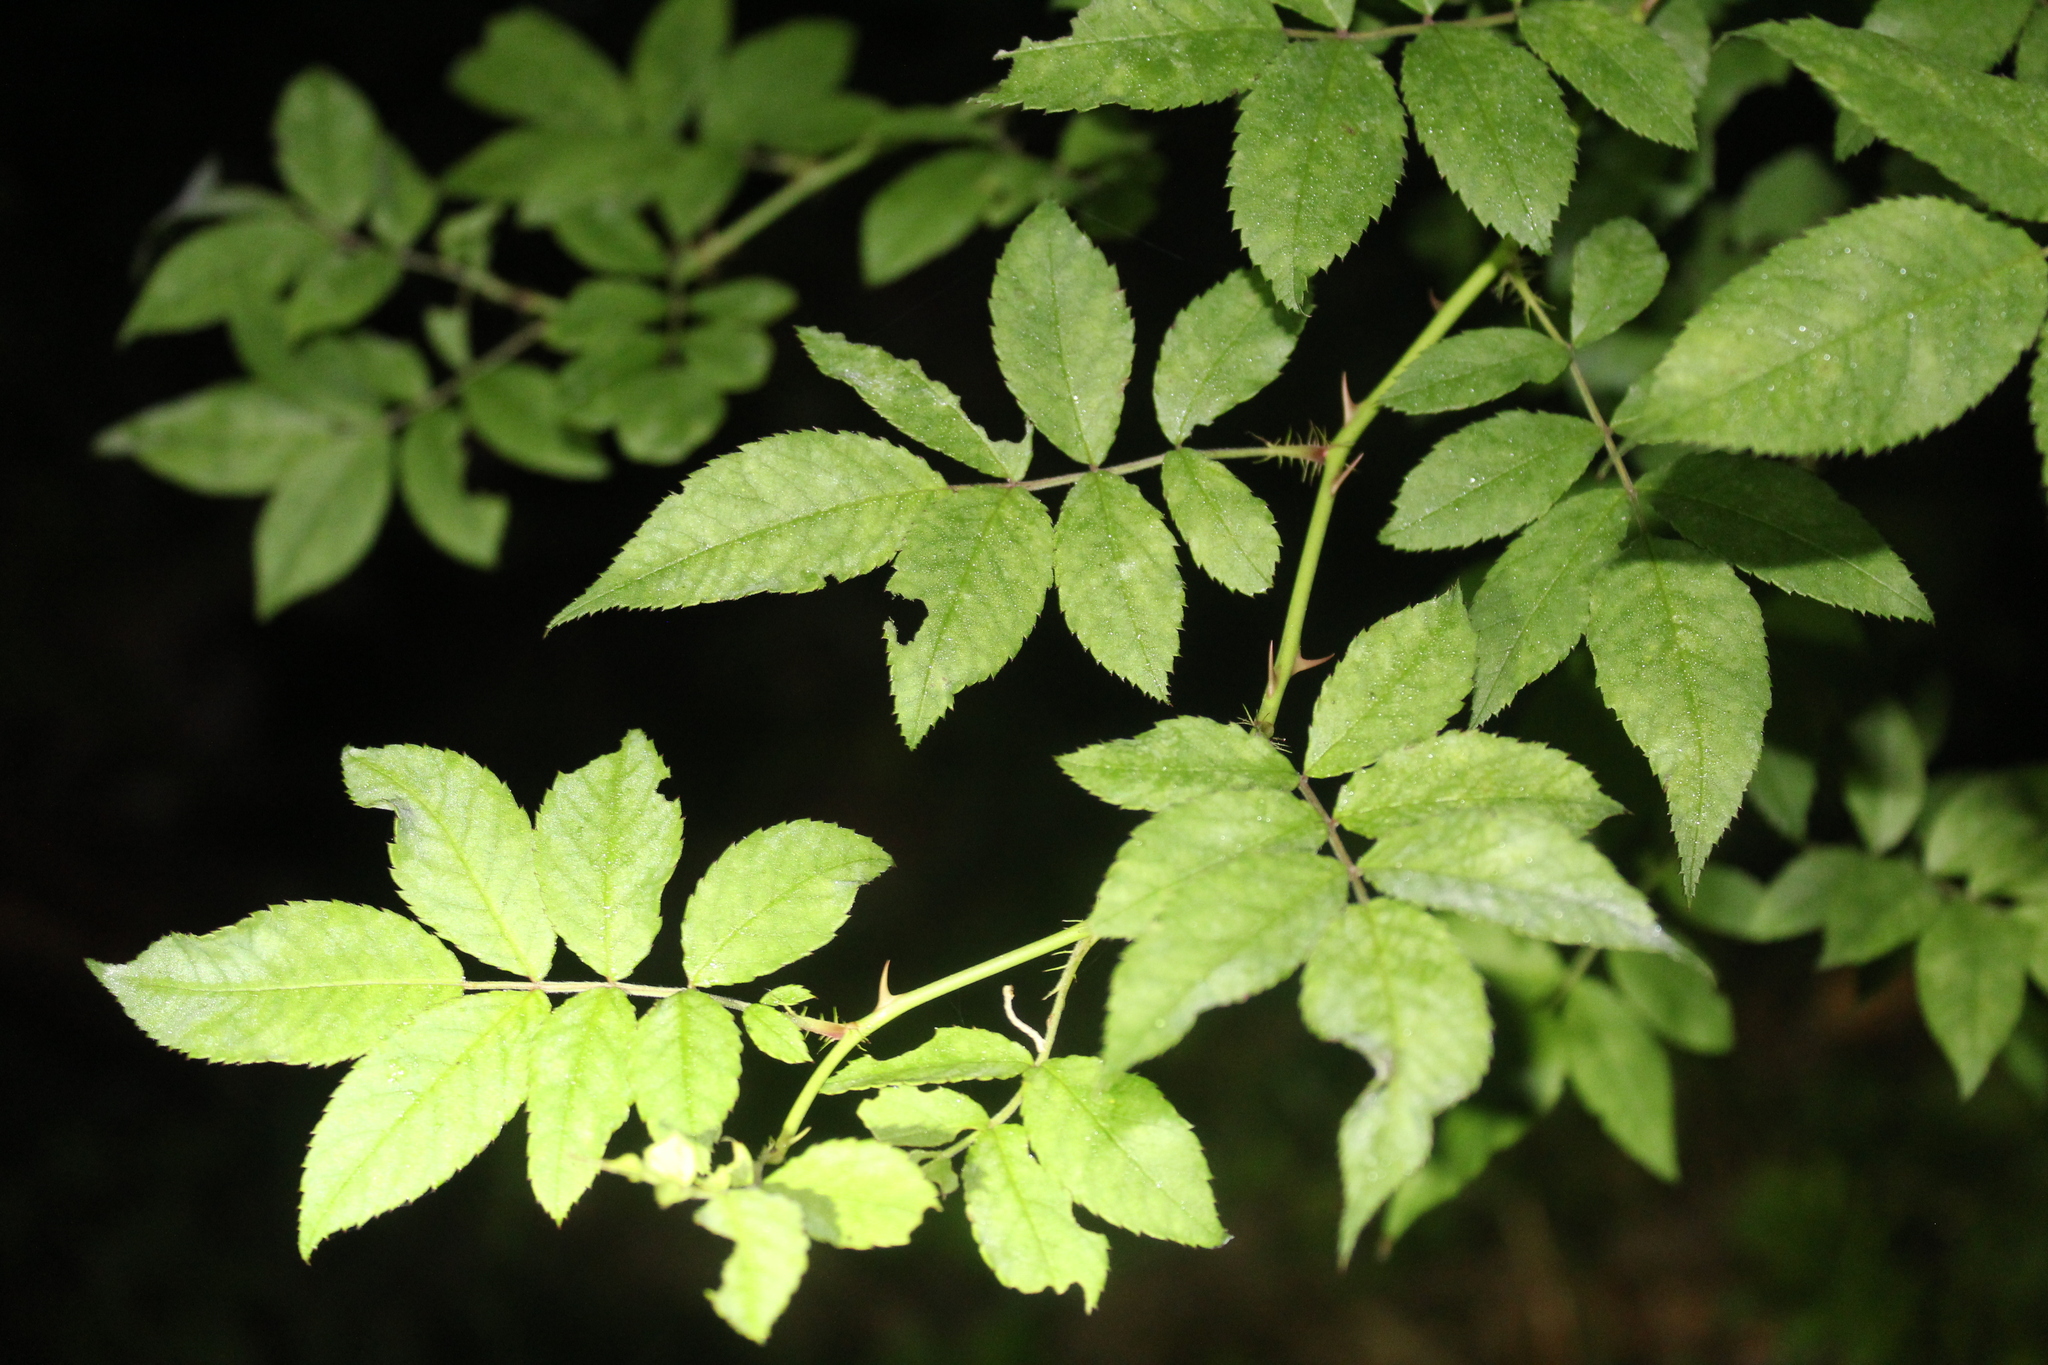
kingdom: Plantae
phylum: Tracheophyta
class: Magnoliopsida
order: Rosales
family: Rosaceae
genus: Rosa
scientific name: Rosa multiflora
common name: Multiflora rose
